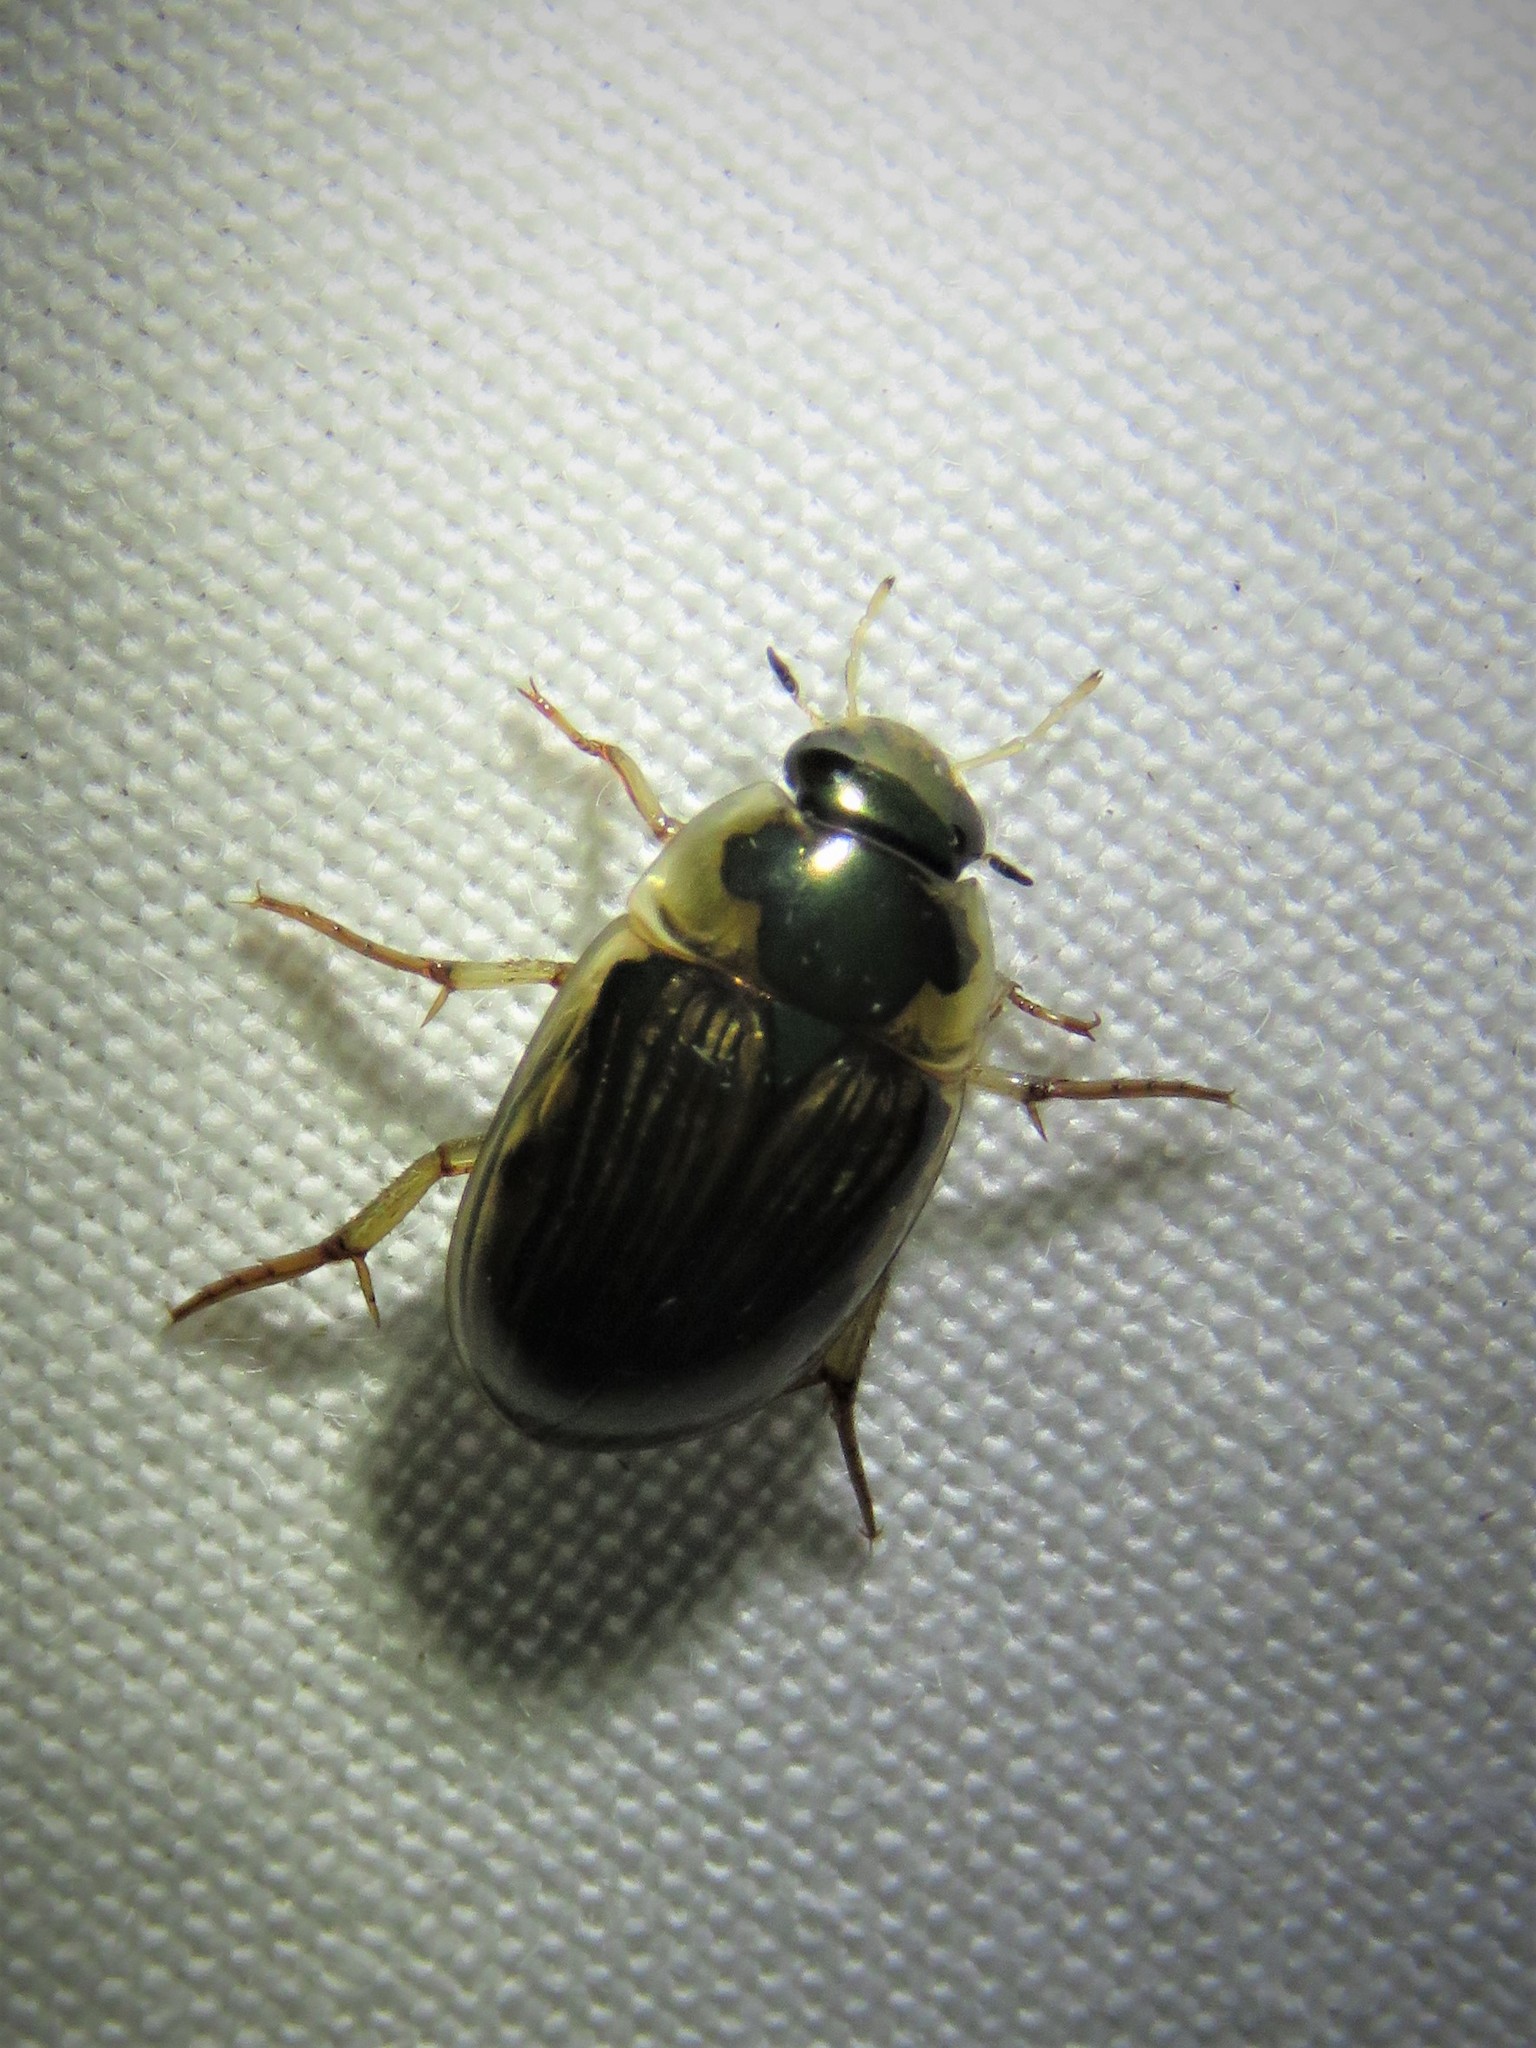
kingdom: Animalia
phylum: Arthropoda
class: Insecta
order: Coleoptera
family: Hydrophilidae
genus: Tropisternus
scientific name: Tropisternus collaris
